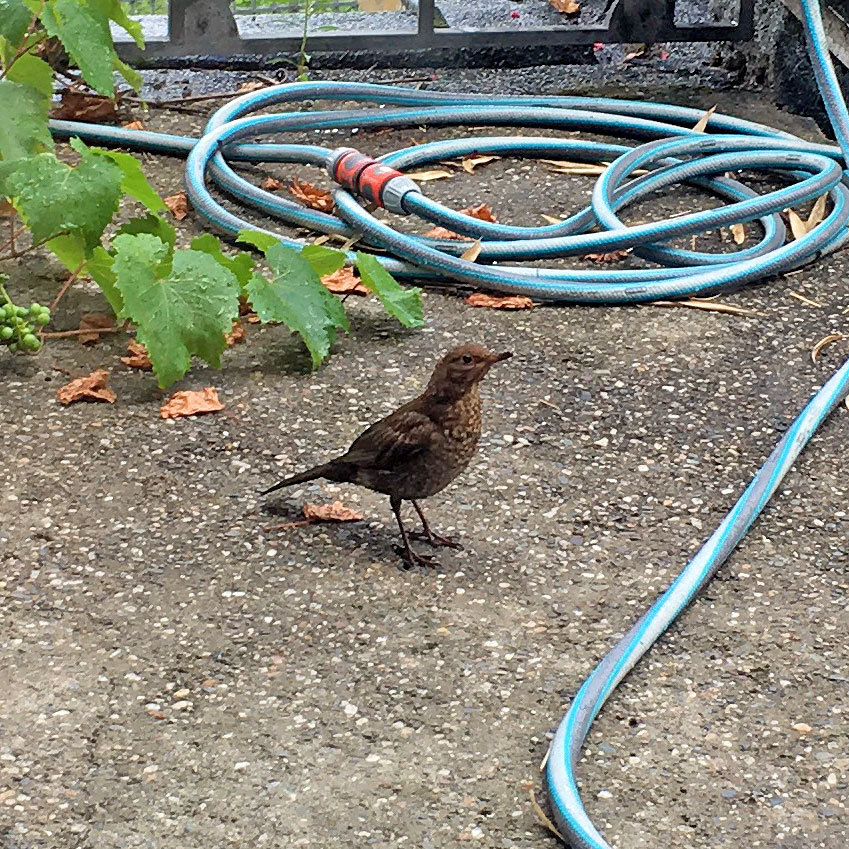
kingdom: Animalia
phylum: Chordata
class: Aves
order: Passeriformes
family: Turdidae
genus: Turdus
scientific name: Turdus merula
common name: Common blackbird
